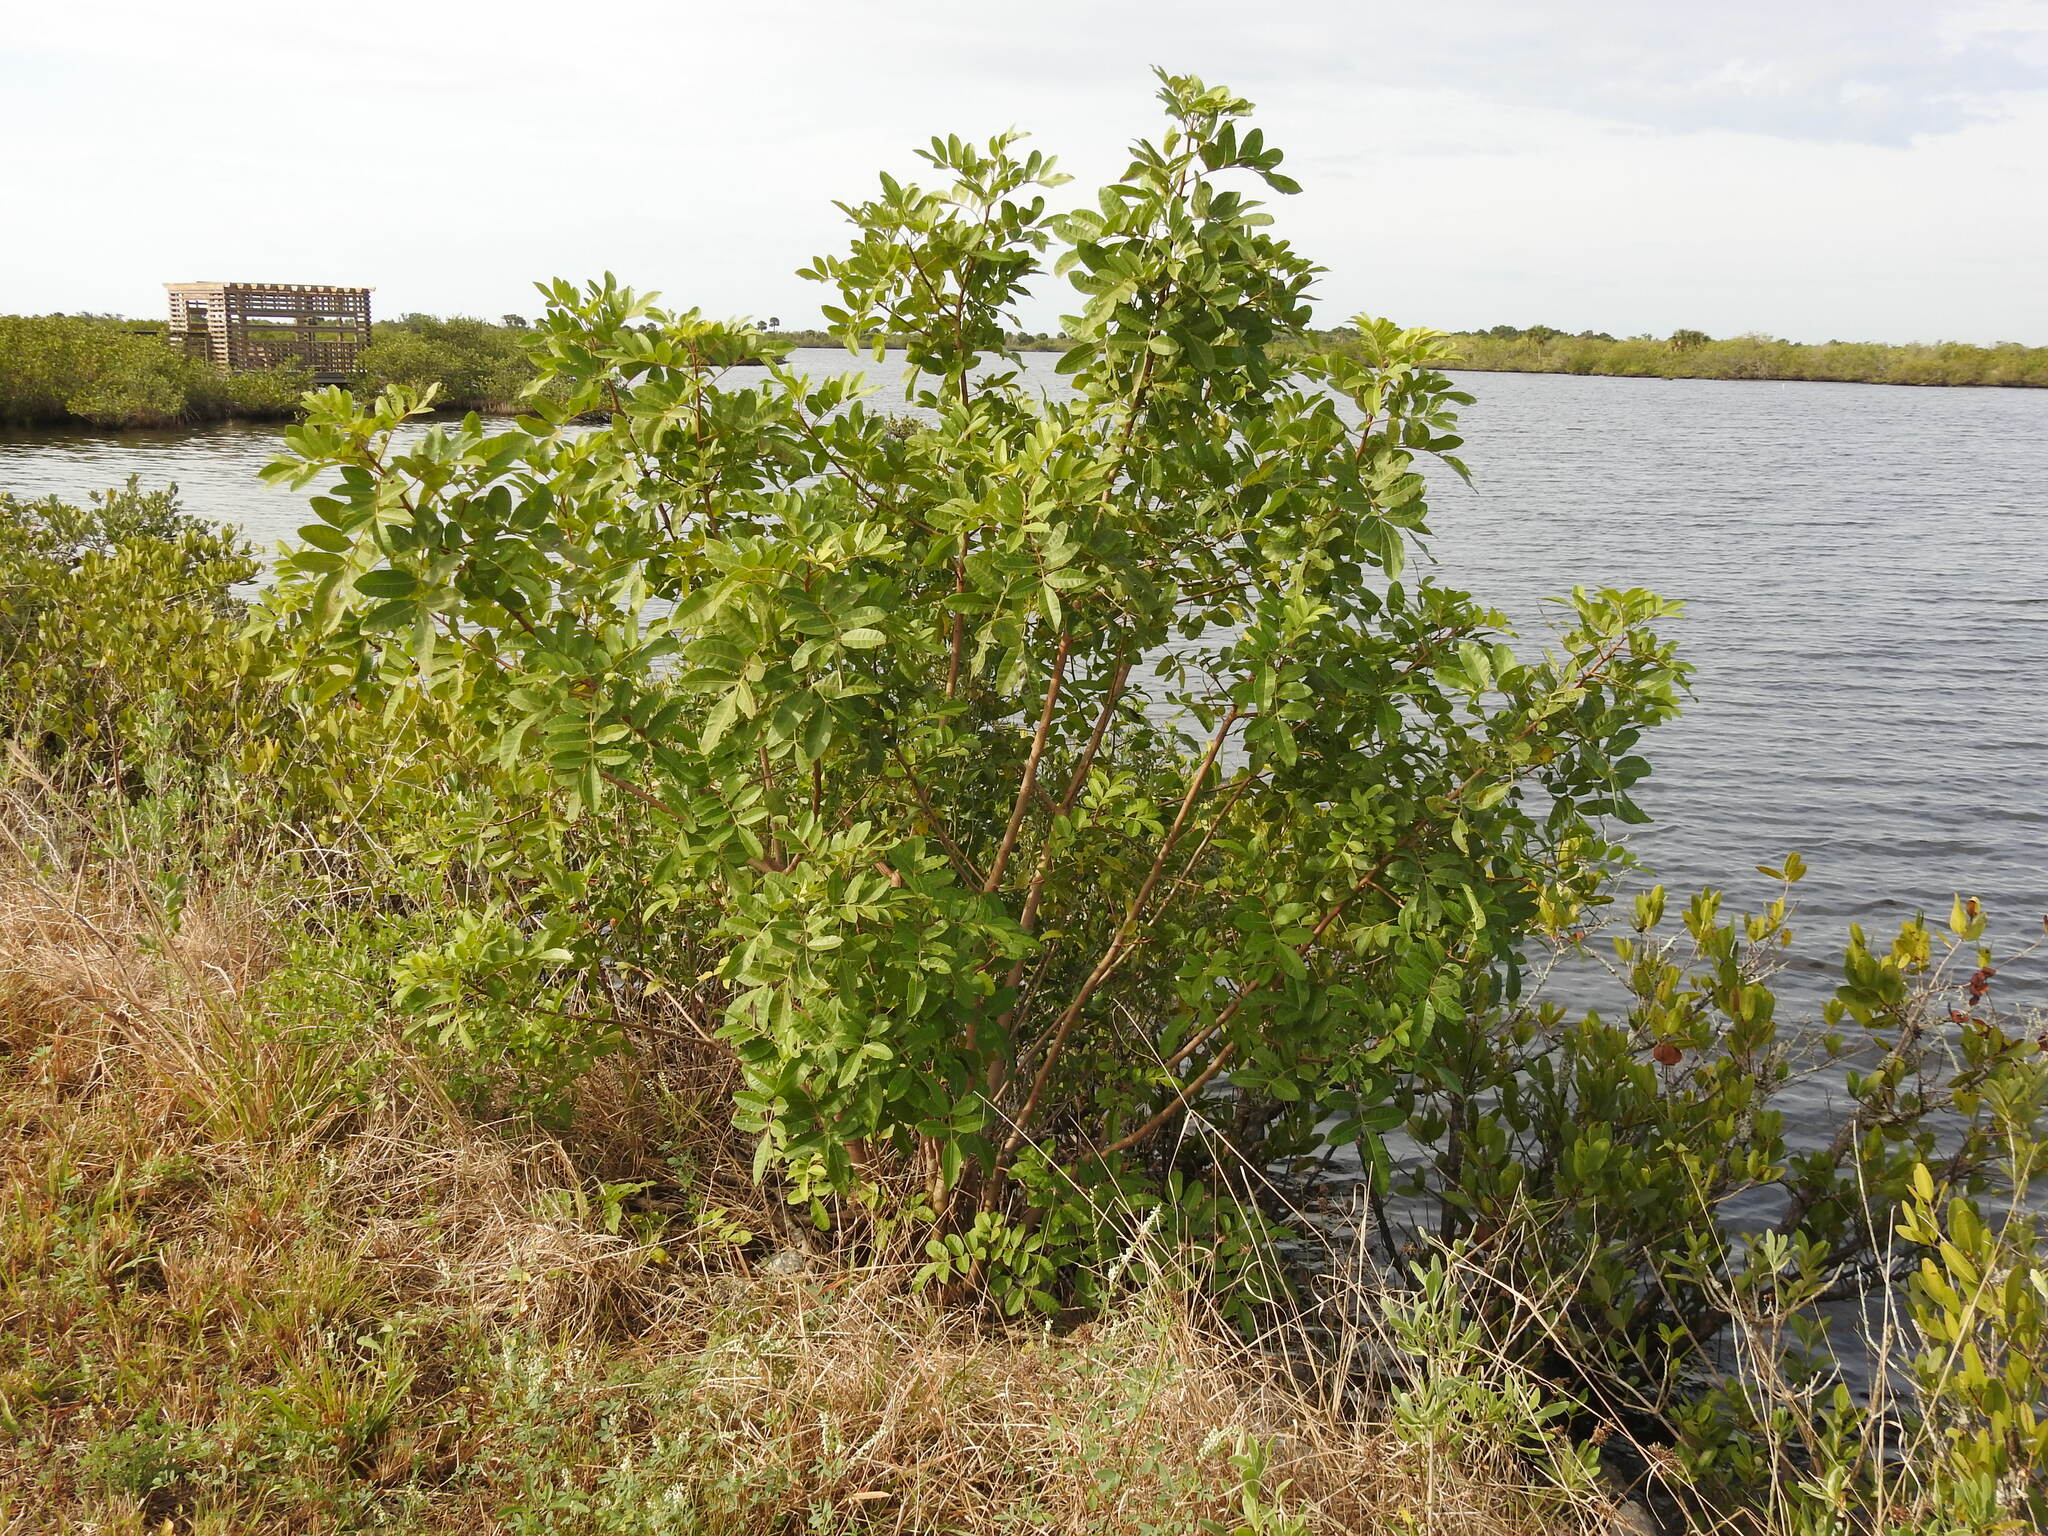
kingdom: Plantae
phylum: Tracheophyta
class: Magnoliopsida
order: Sapindales
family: Anacardiaceae
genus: Schinus
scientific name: Schinus terebinthifolia
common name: Brazilian peppertree
